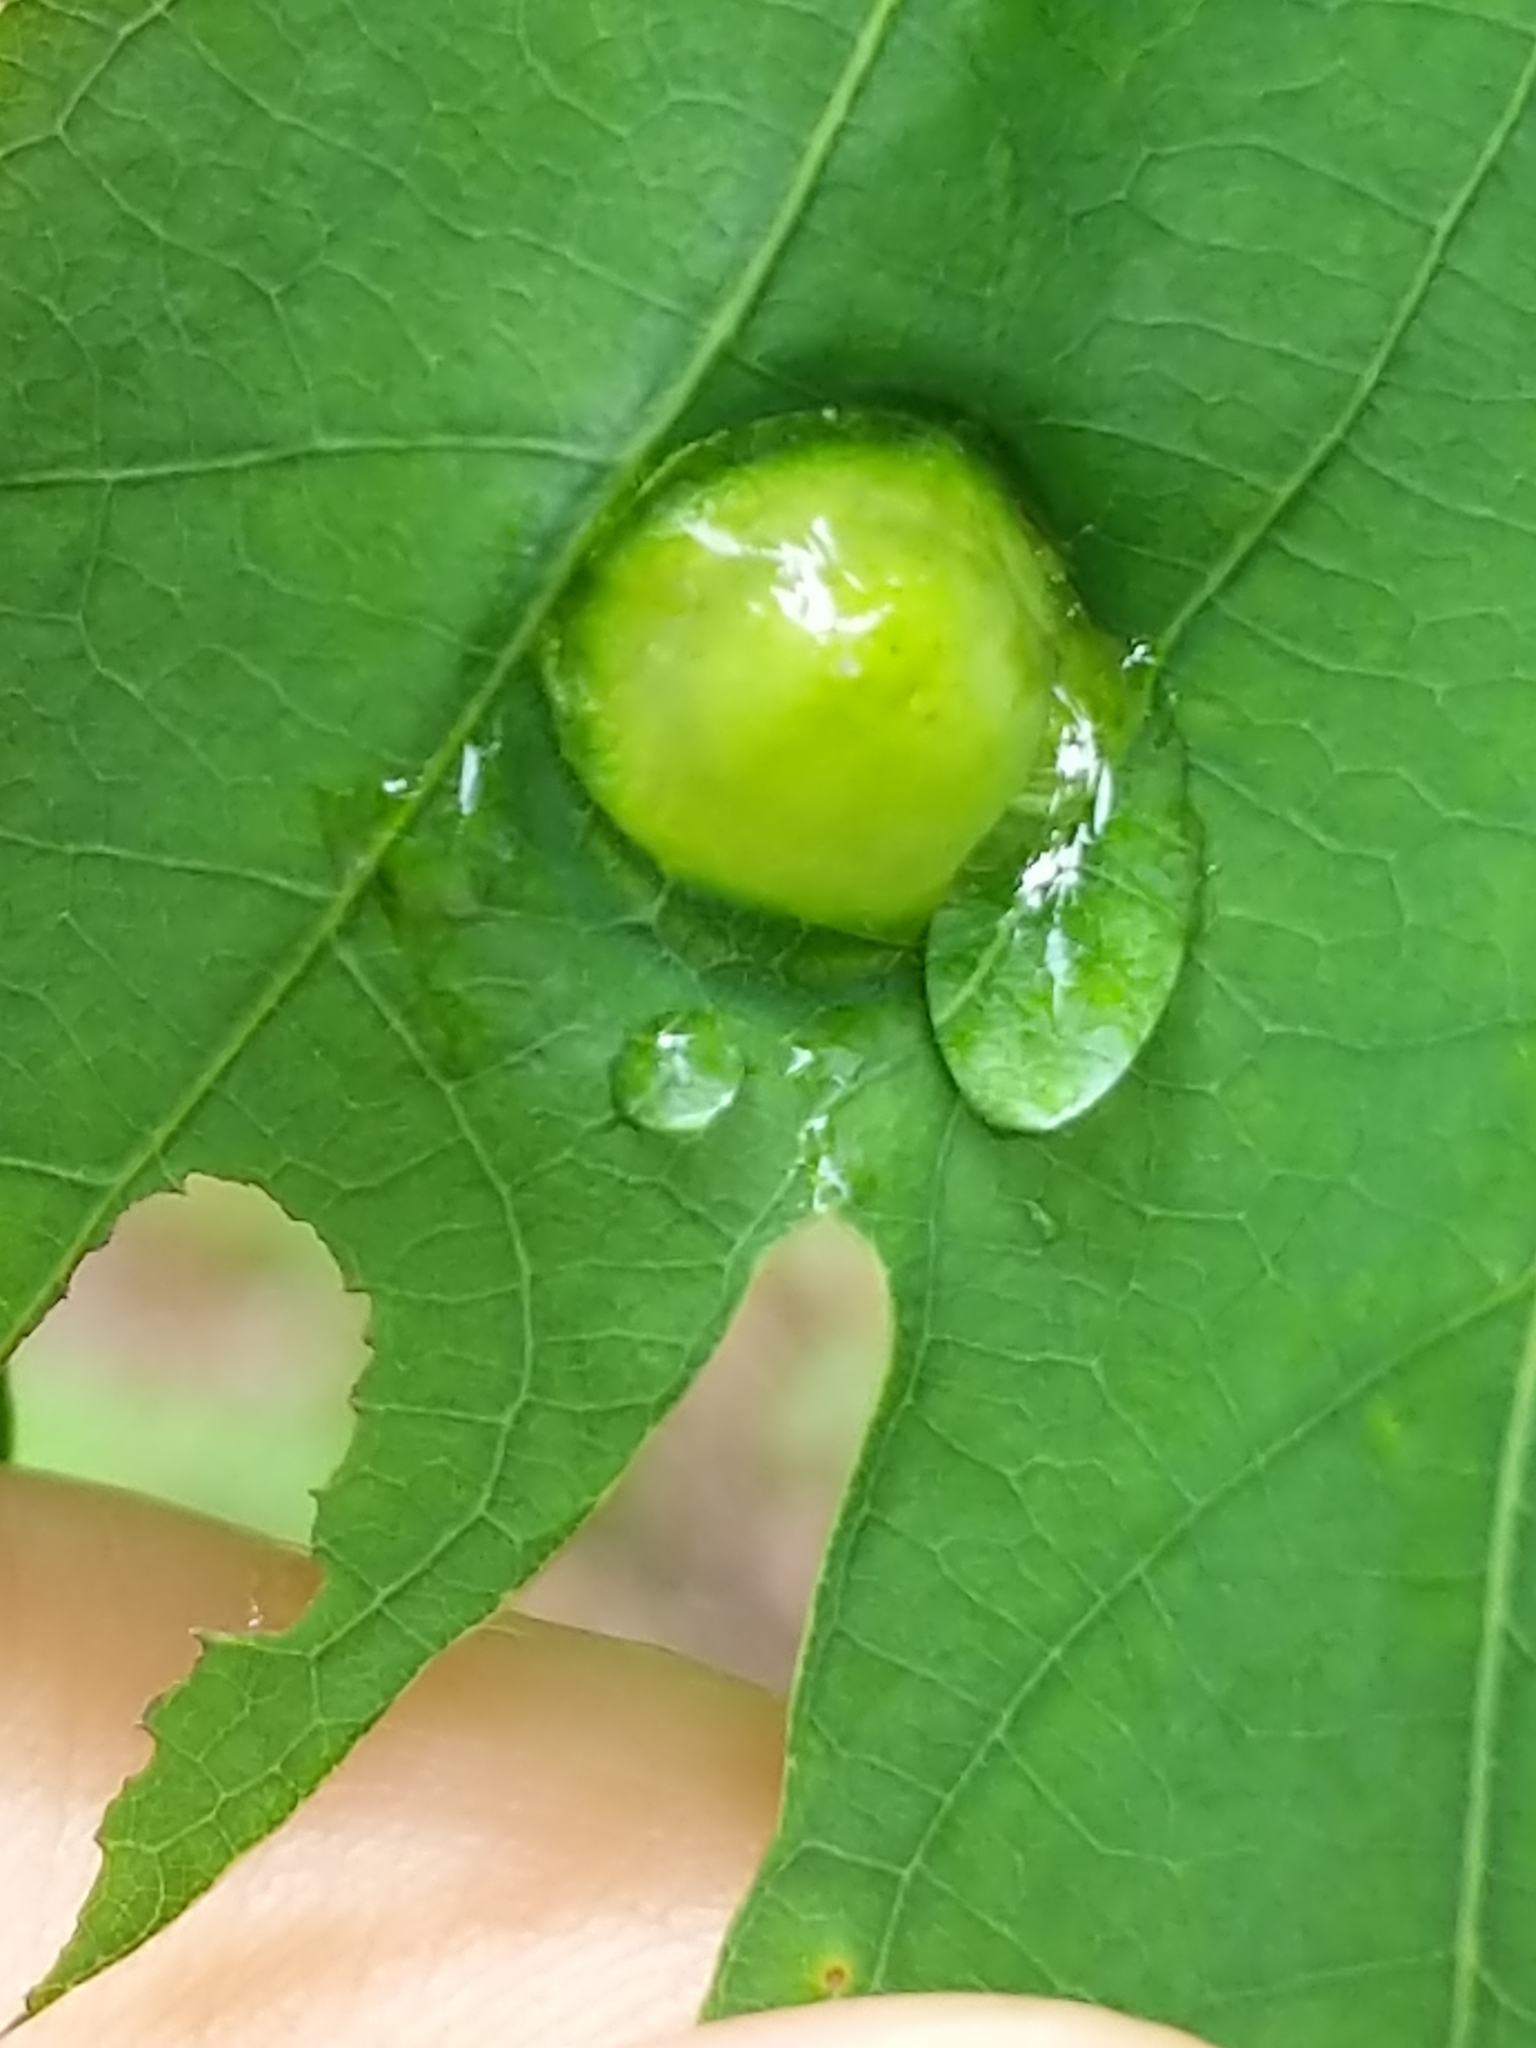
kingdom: Animalia
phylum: Arthropoda
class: Insecta
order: Hymenoptera
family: Cynipidae
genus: Callirhytis
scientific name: Callirhytis
